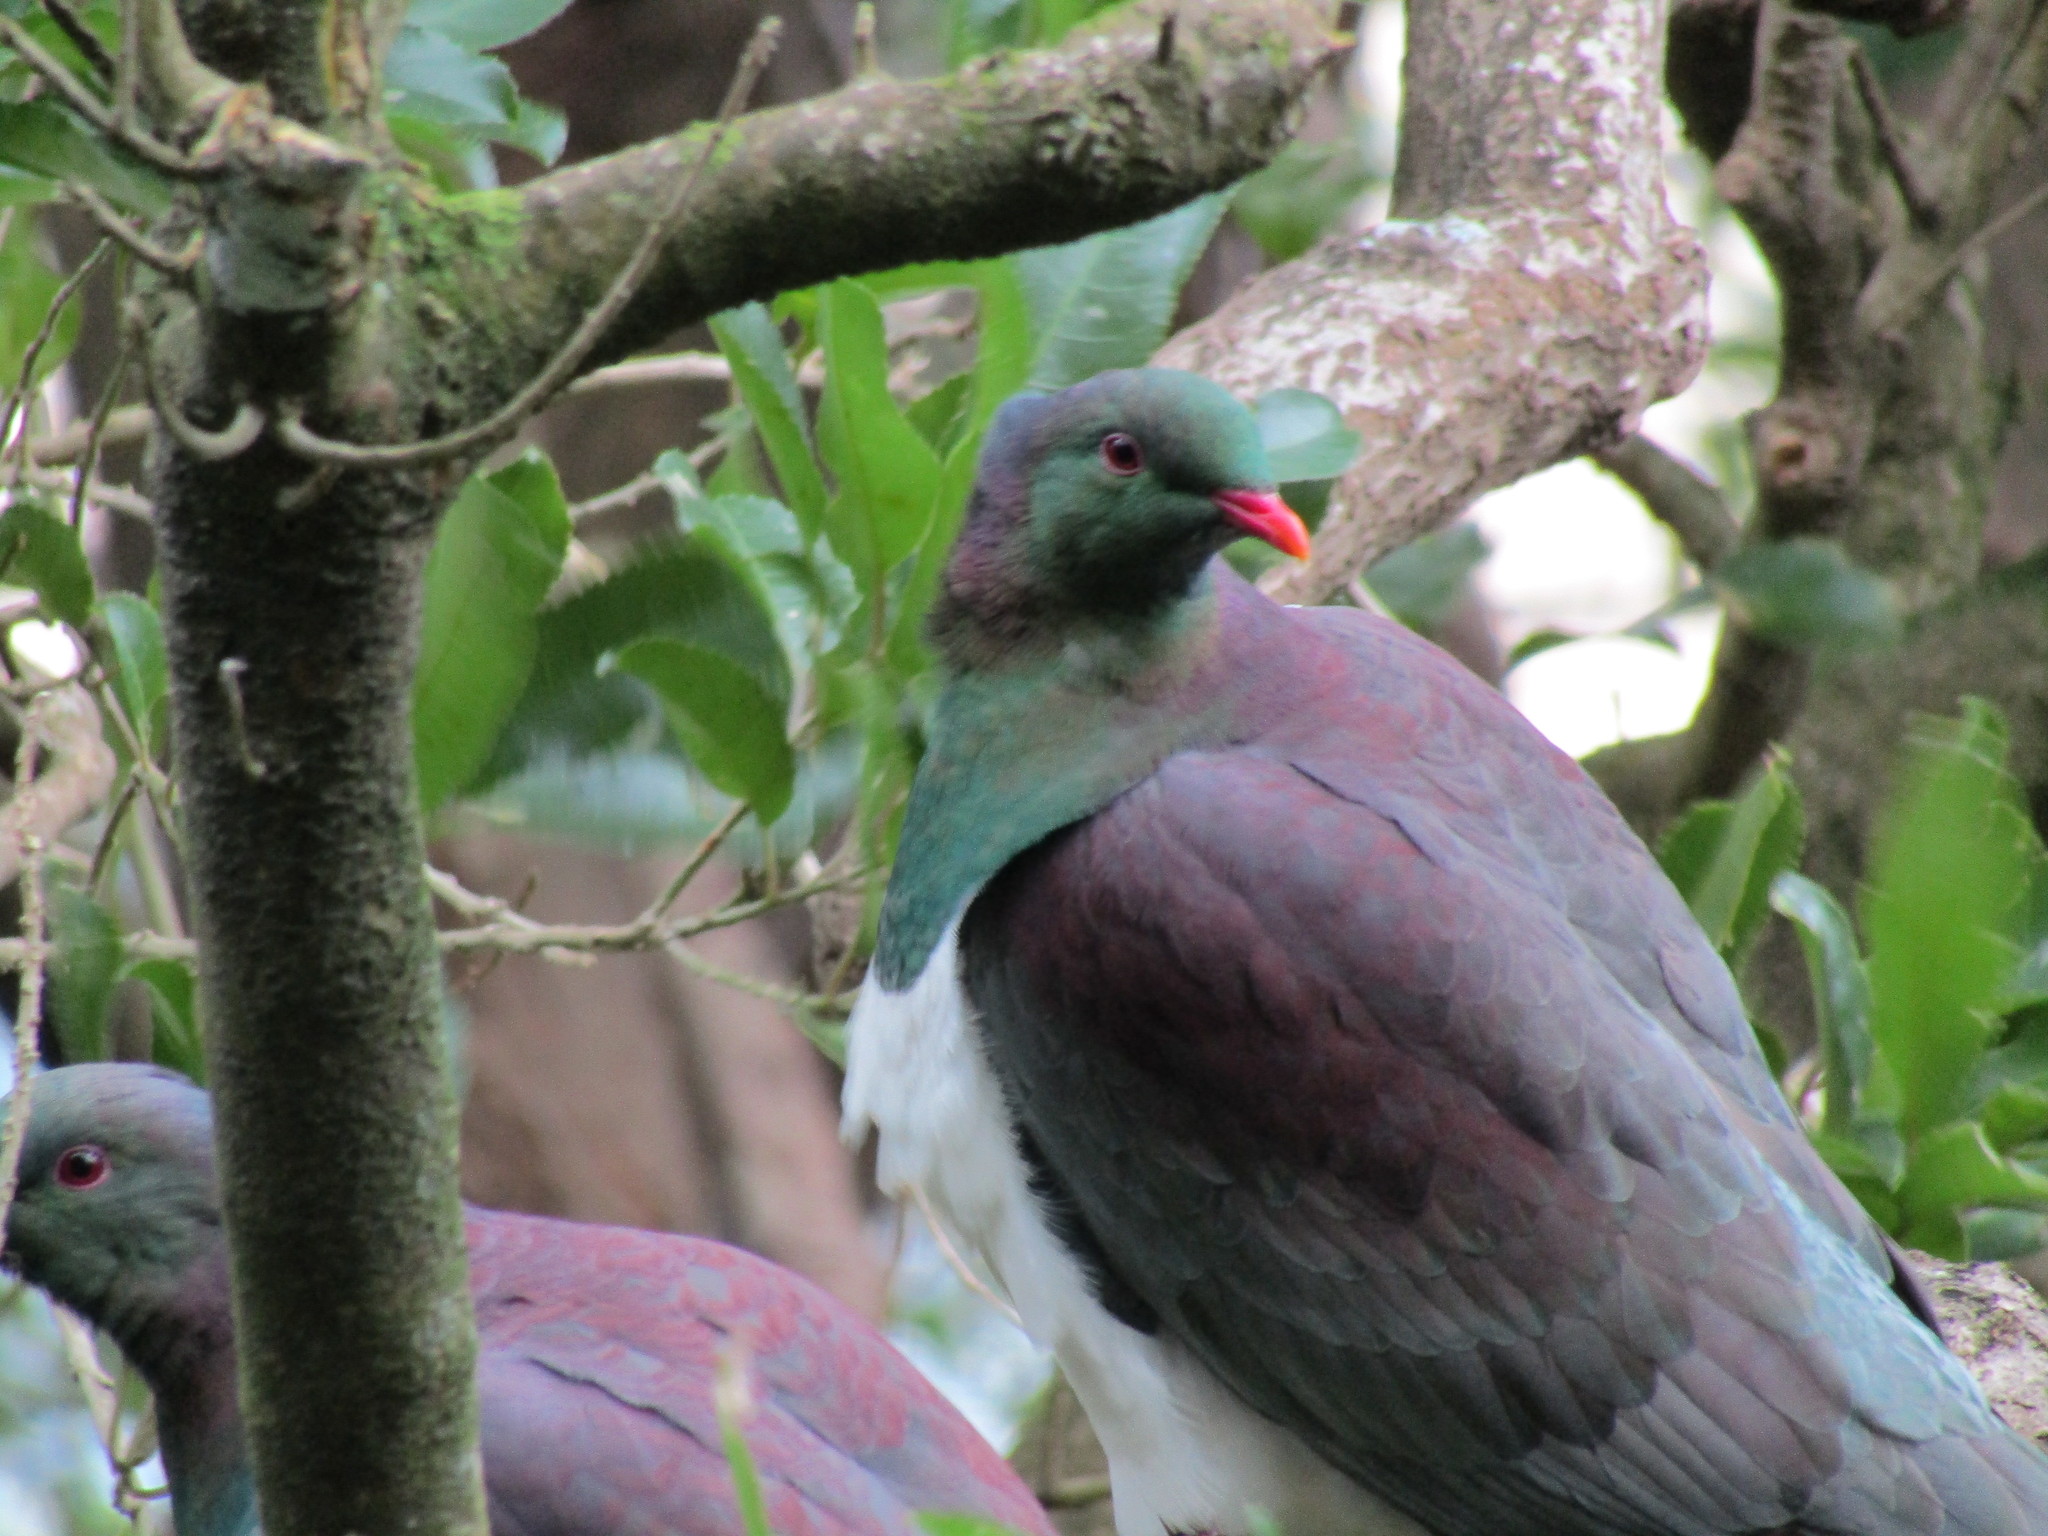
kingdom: Animalia
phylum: Chordata
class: Aves
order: Columbiformes
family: Columbidae
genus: Hemiphaga
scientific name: Hemiphaga novaeseelandiae
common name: New zealand pigeon
